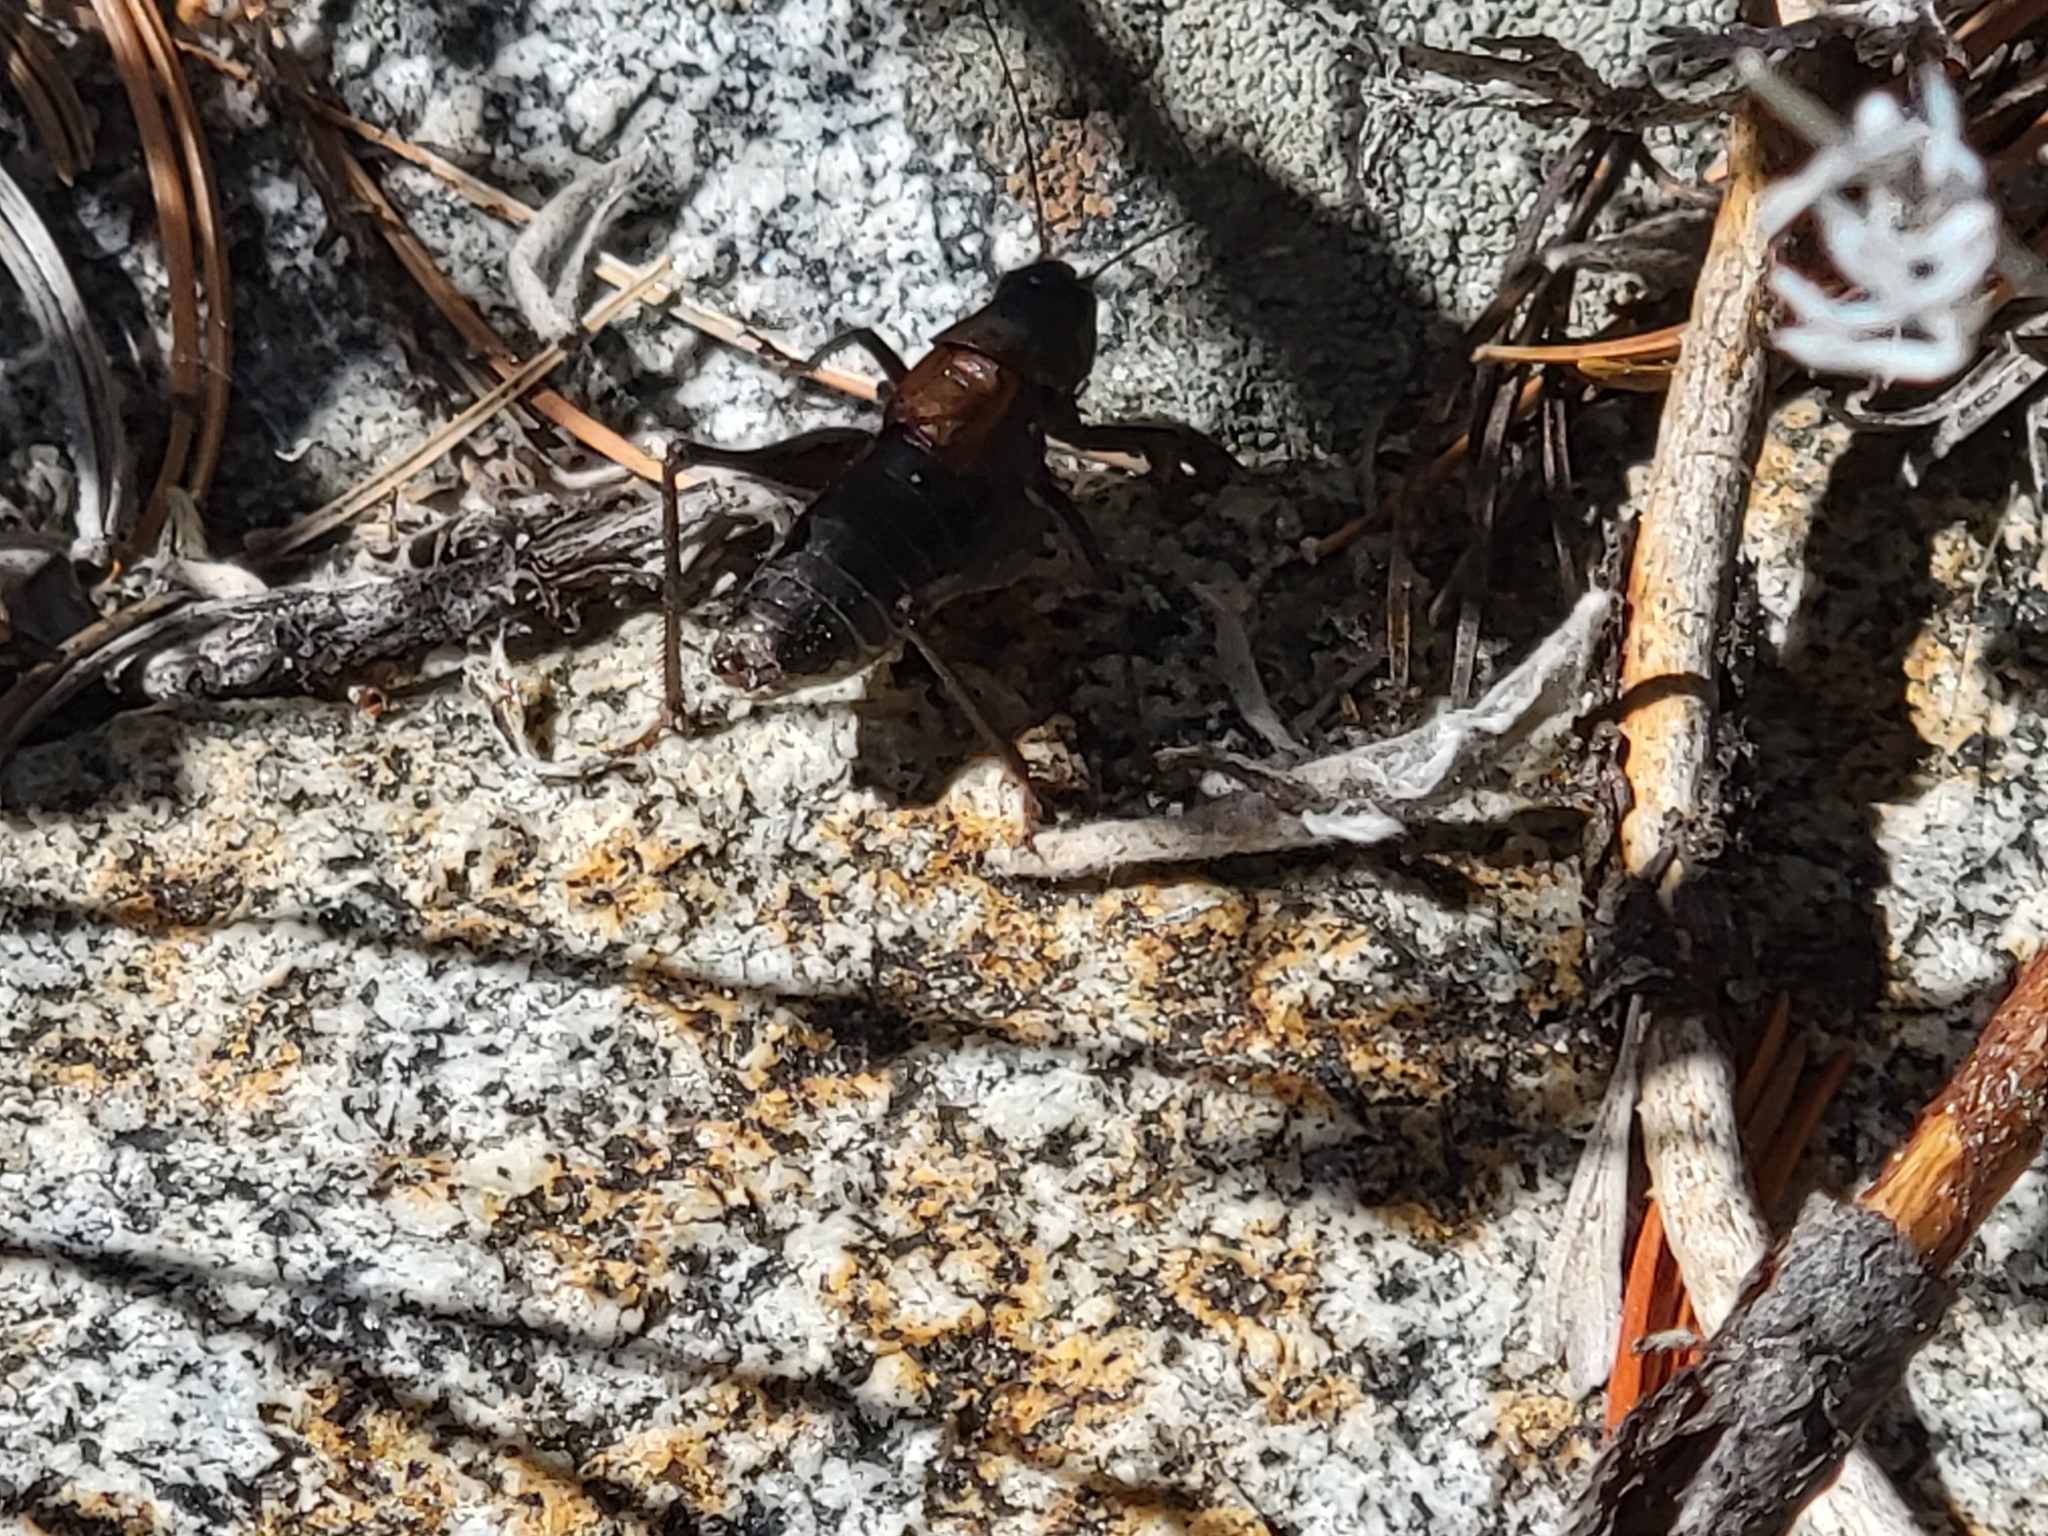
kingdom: Animalia
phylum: Arthropoda
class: Insecta
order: Orthoptera
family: Tettigoniidae
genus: Idiostatus
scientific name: Idiostatus inermis
